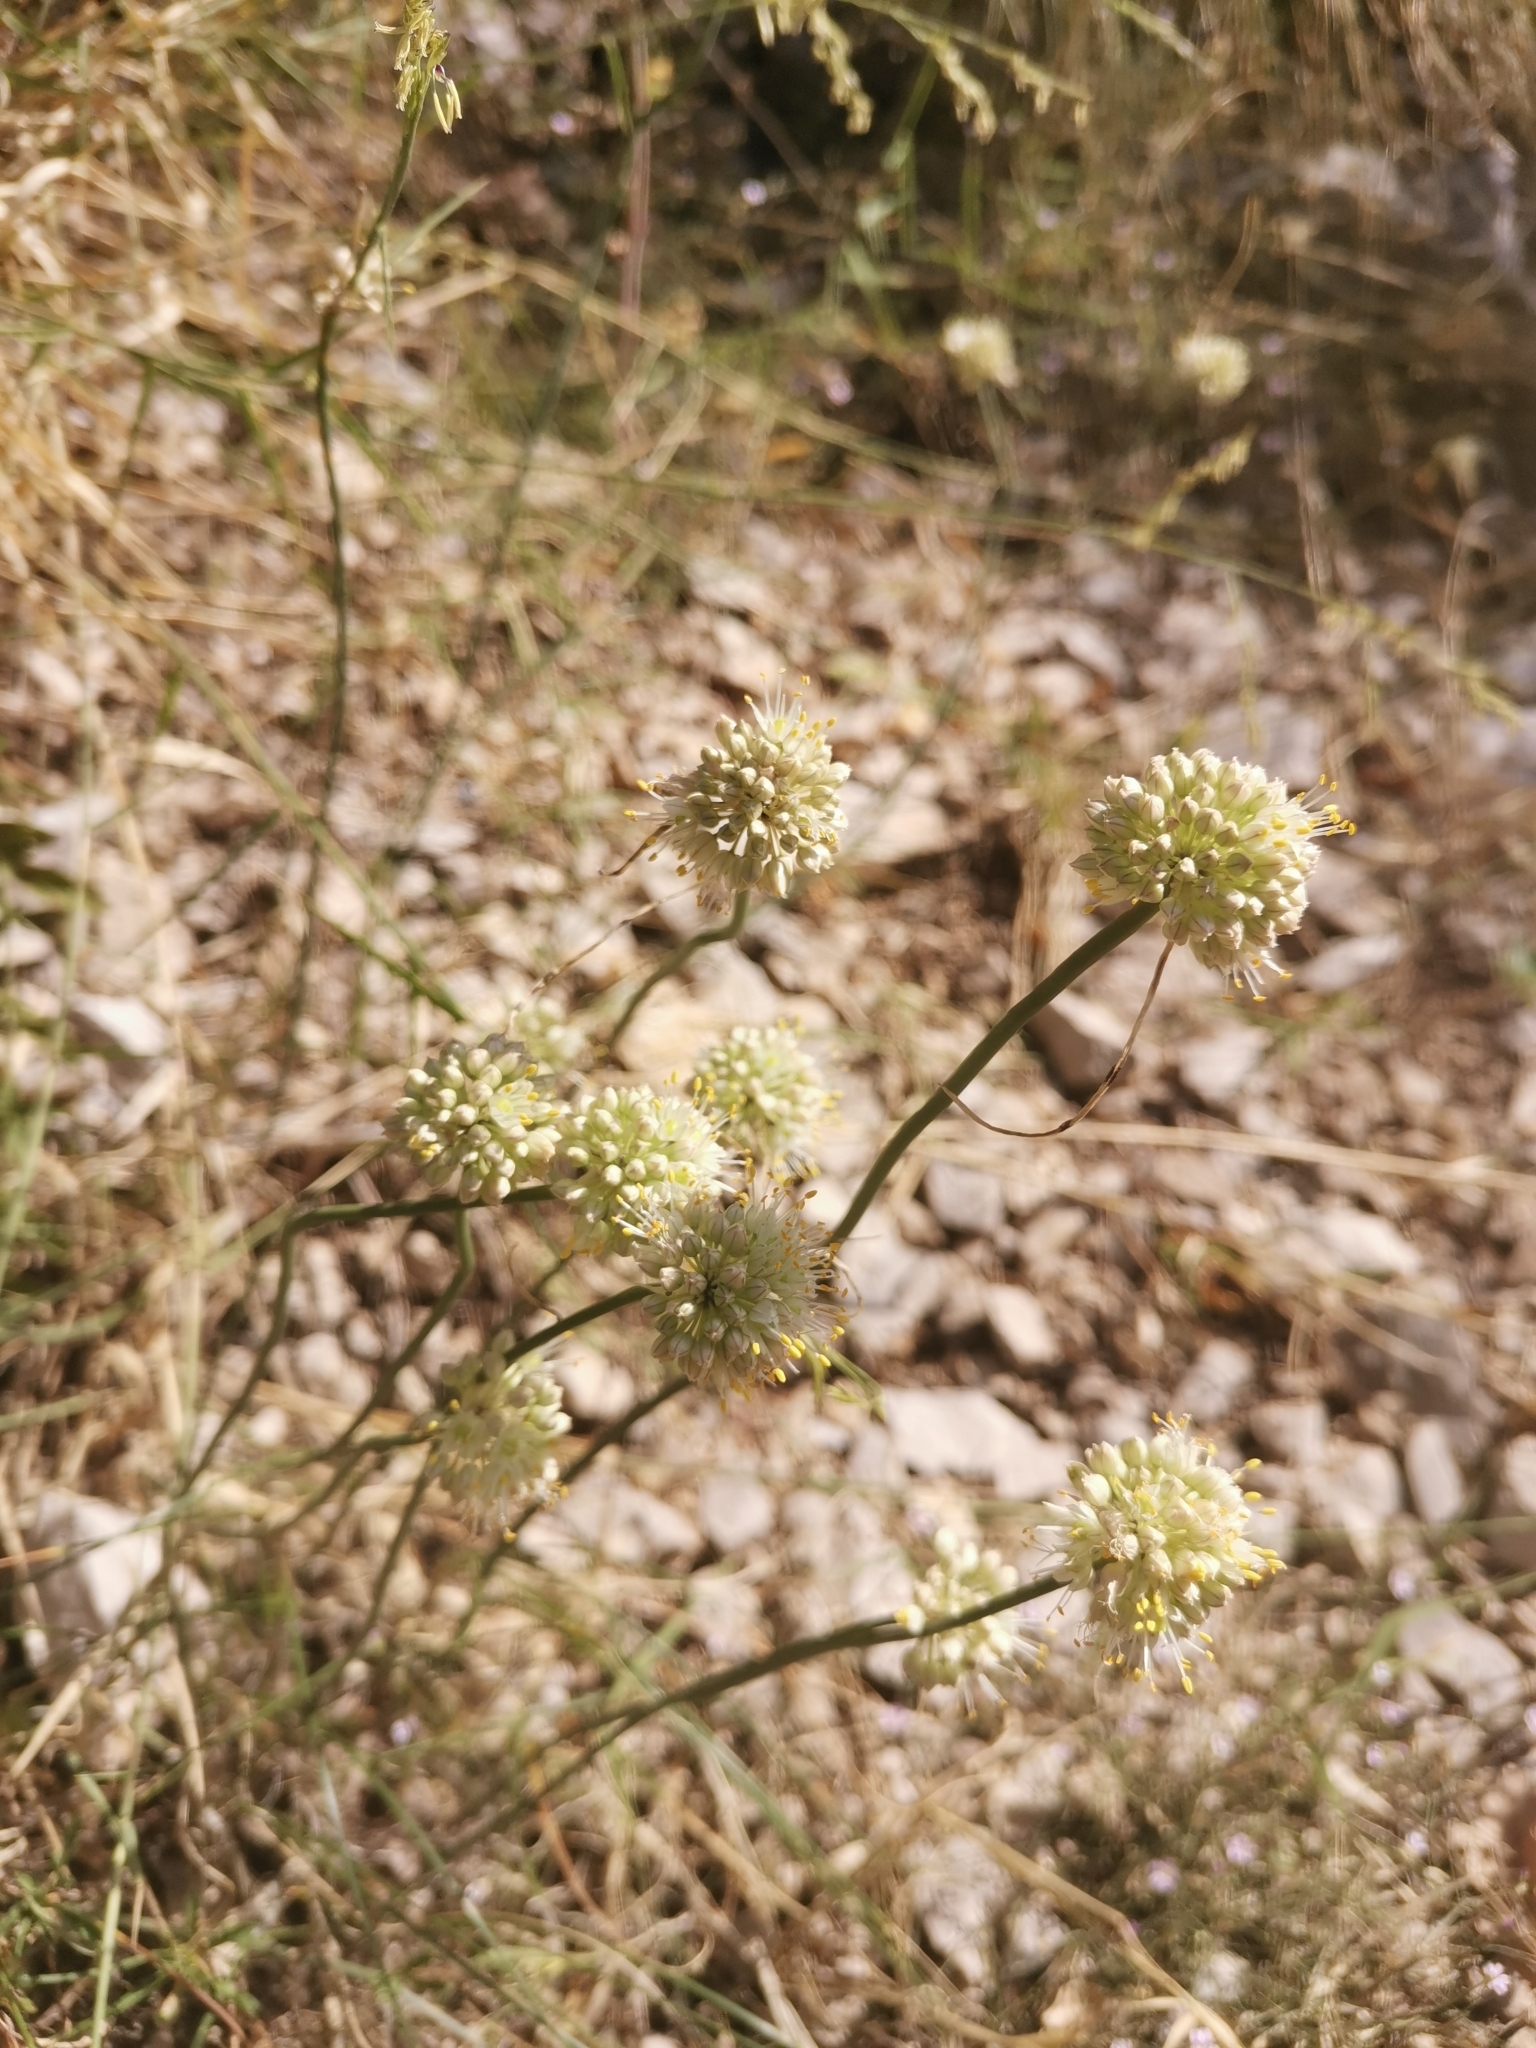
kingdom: Plantae
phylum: Tracheophyta
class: Liliopsida
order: Asparagales
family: Amaryllidaceae
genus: Allium
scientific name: Allium horvatii
